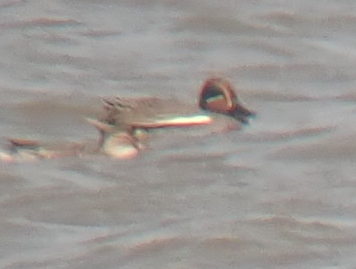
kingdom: Animalia
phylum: Chordata
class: Aves
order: Anseriformes
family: Anatidae
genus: Anas
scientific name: Anas crecca
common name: Eurasian teal
